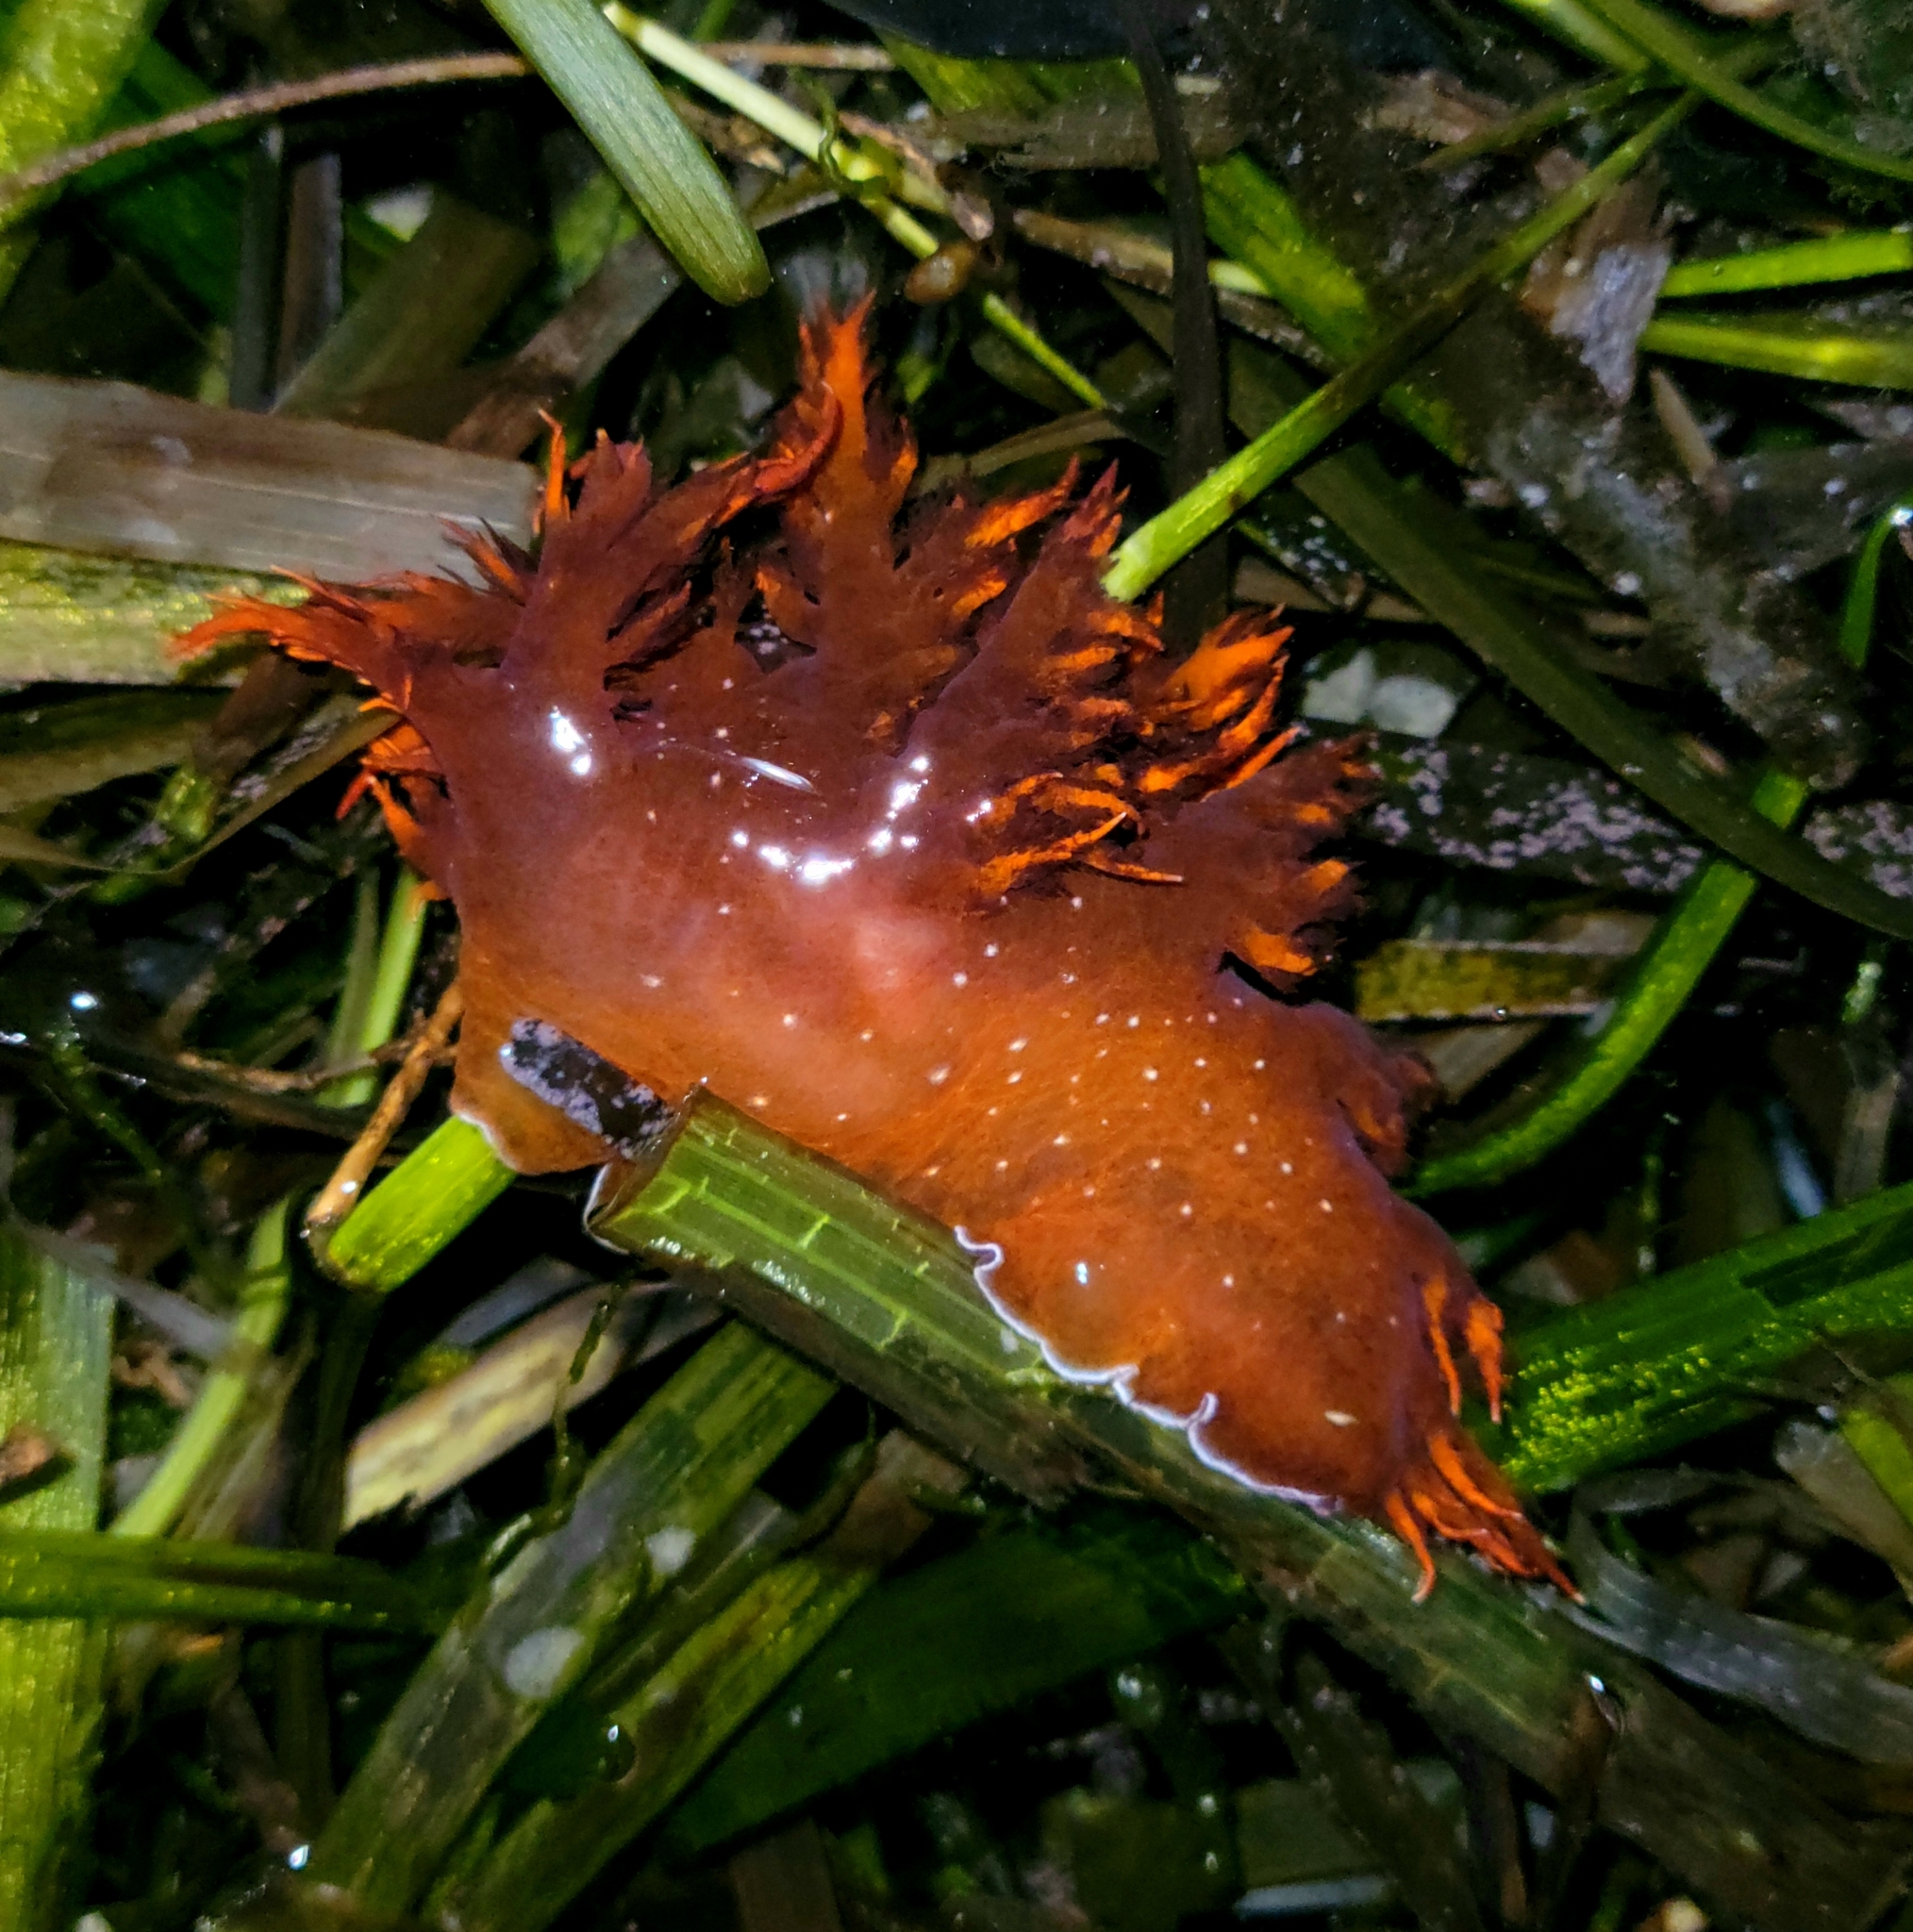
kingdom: Animalia
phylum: Mollusca
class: Gastropoda
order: Nudibranchia
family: Dendronotidae
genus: Dendronotus
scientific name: Dendronotus iris
